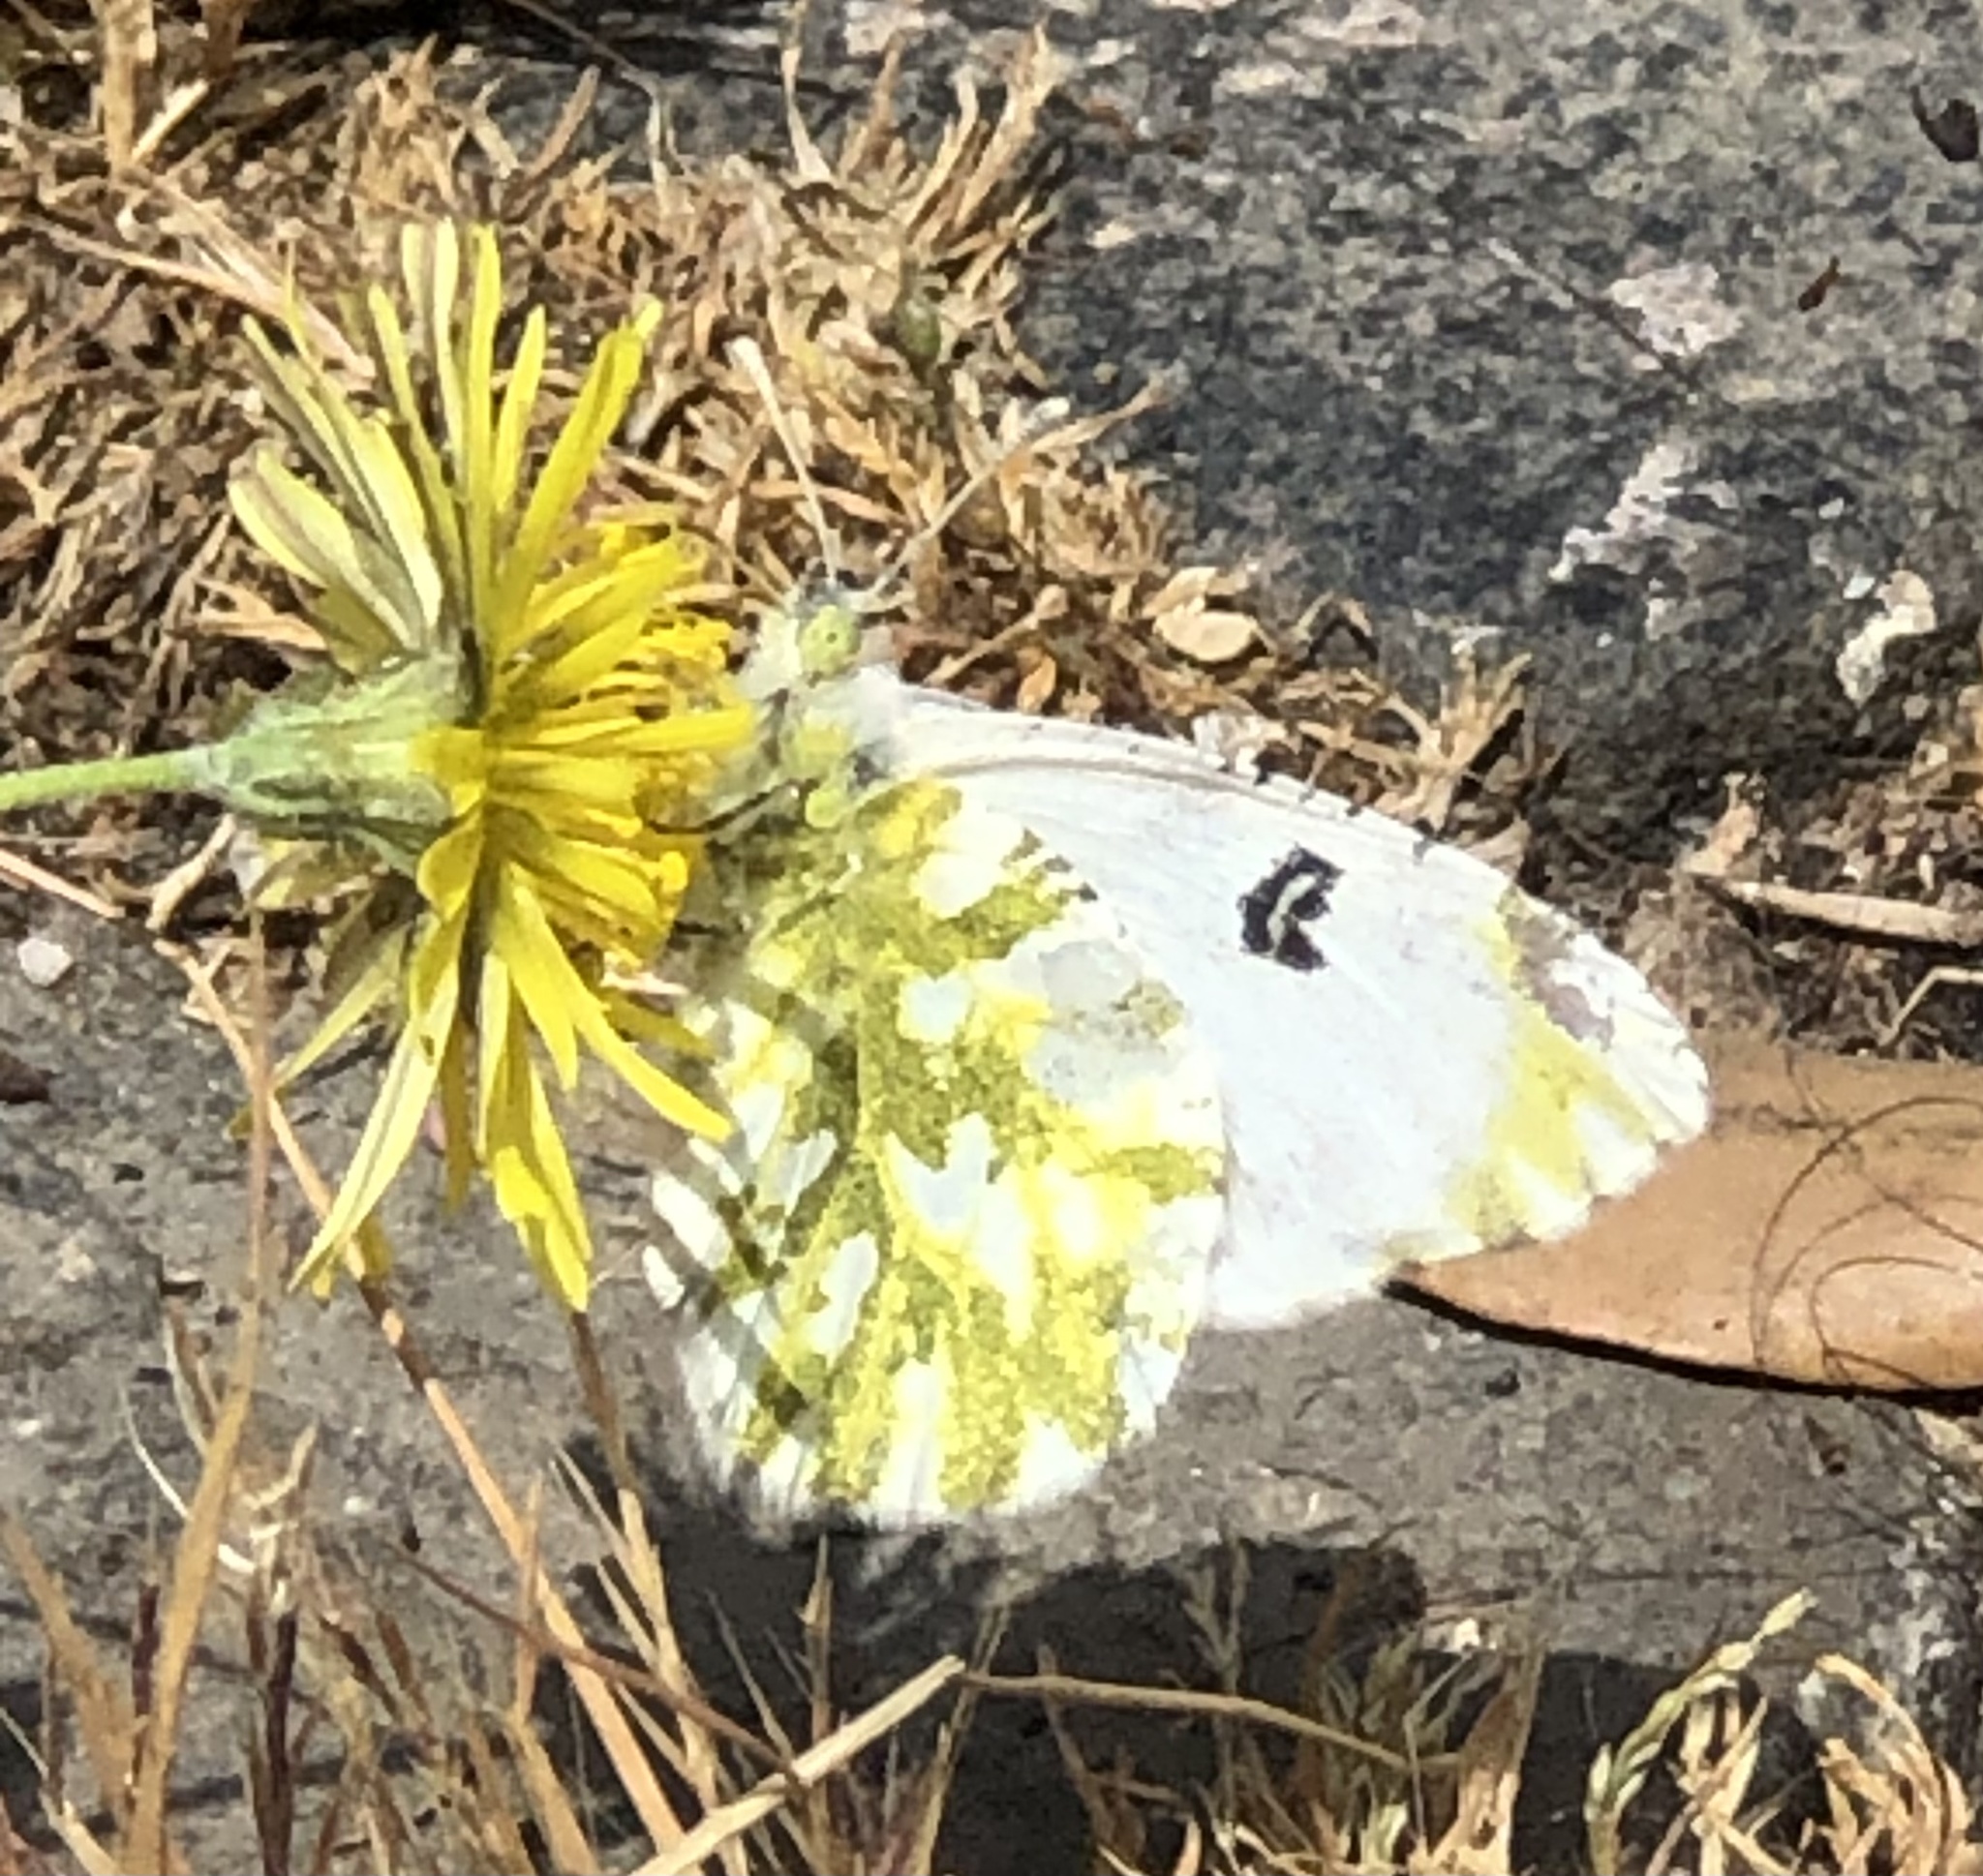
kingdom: Animalia
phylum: Arthropoda
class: Insecta
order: Lepidoptera
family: Pieridae
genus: Euchloe
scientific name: Euchloe ausonia
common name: Eastern dappled white
